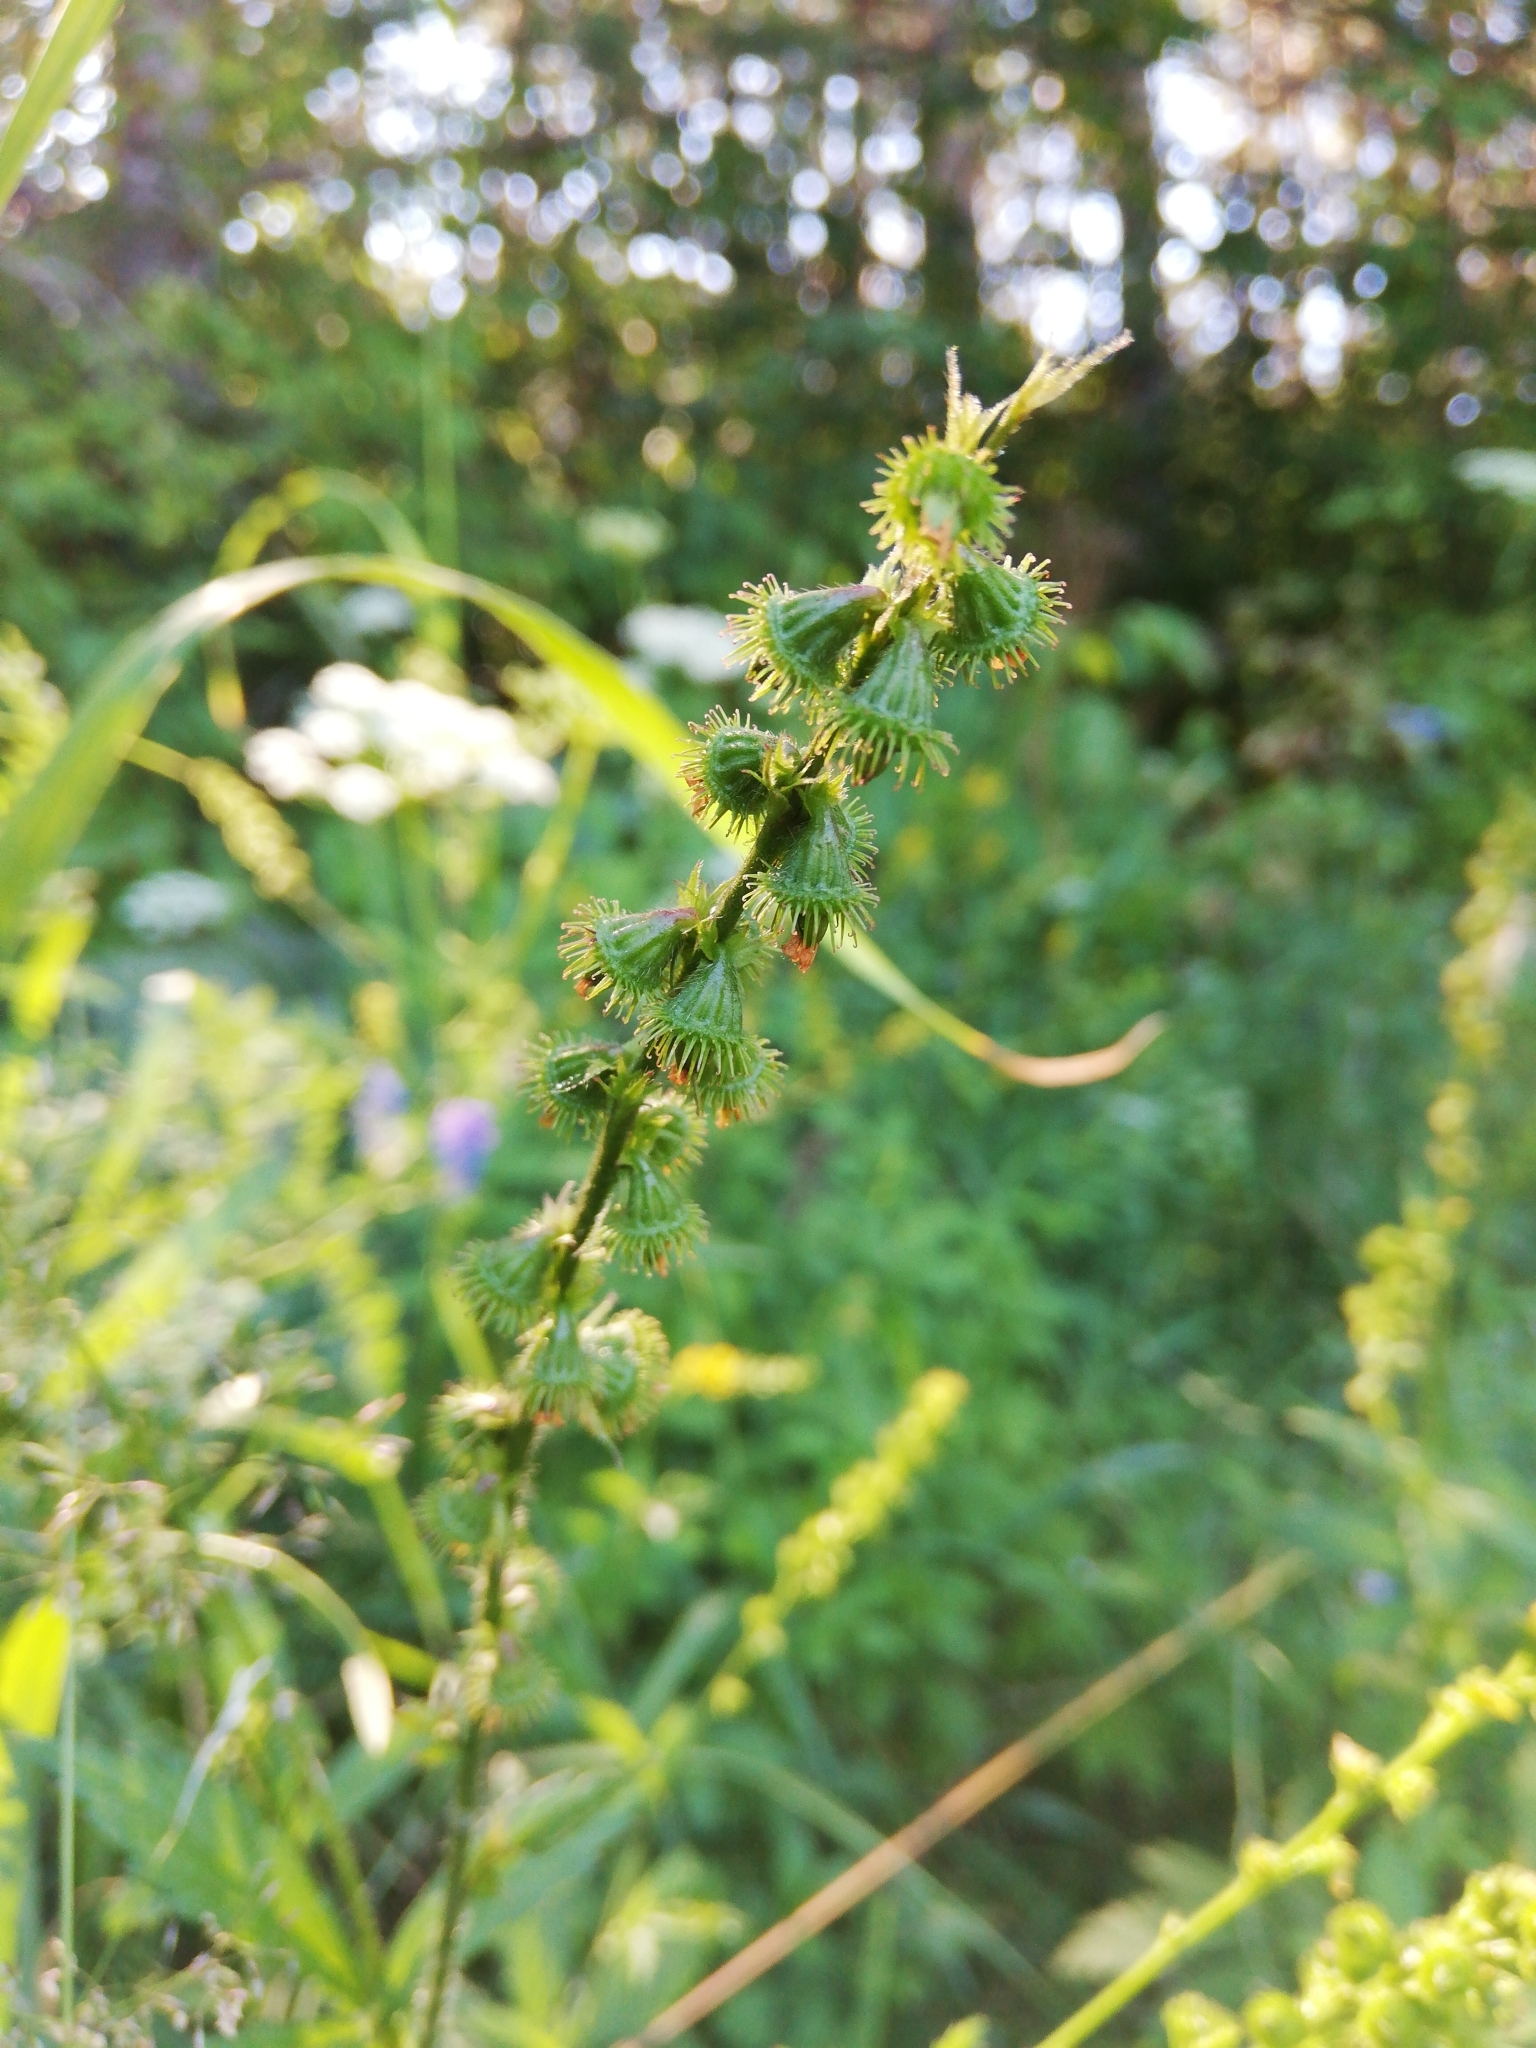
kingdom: Plantae
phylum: Tracheophyta
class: Magnoliopsida
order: Rosales
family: Rosaceae
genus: Agrimonia
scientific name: Agrimonia pilosa
